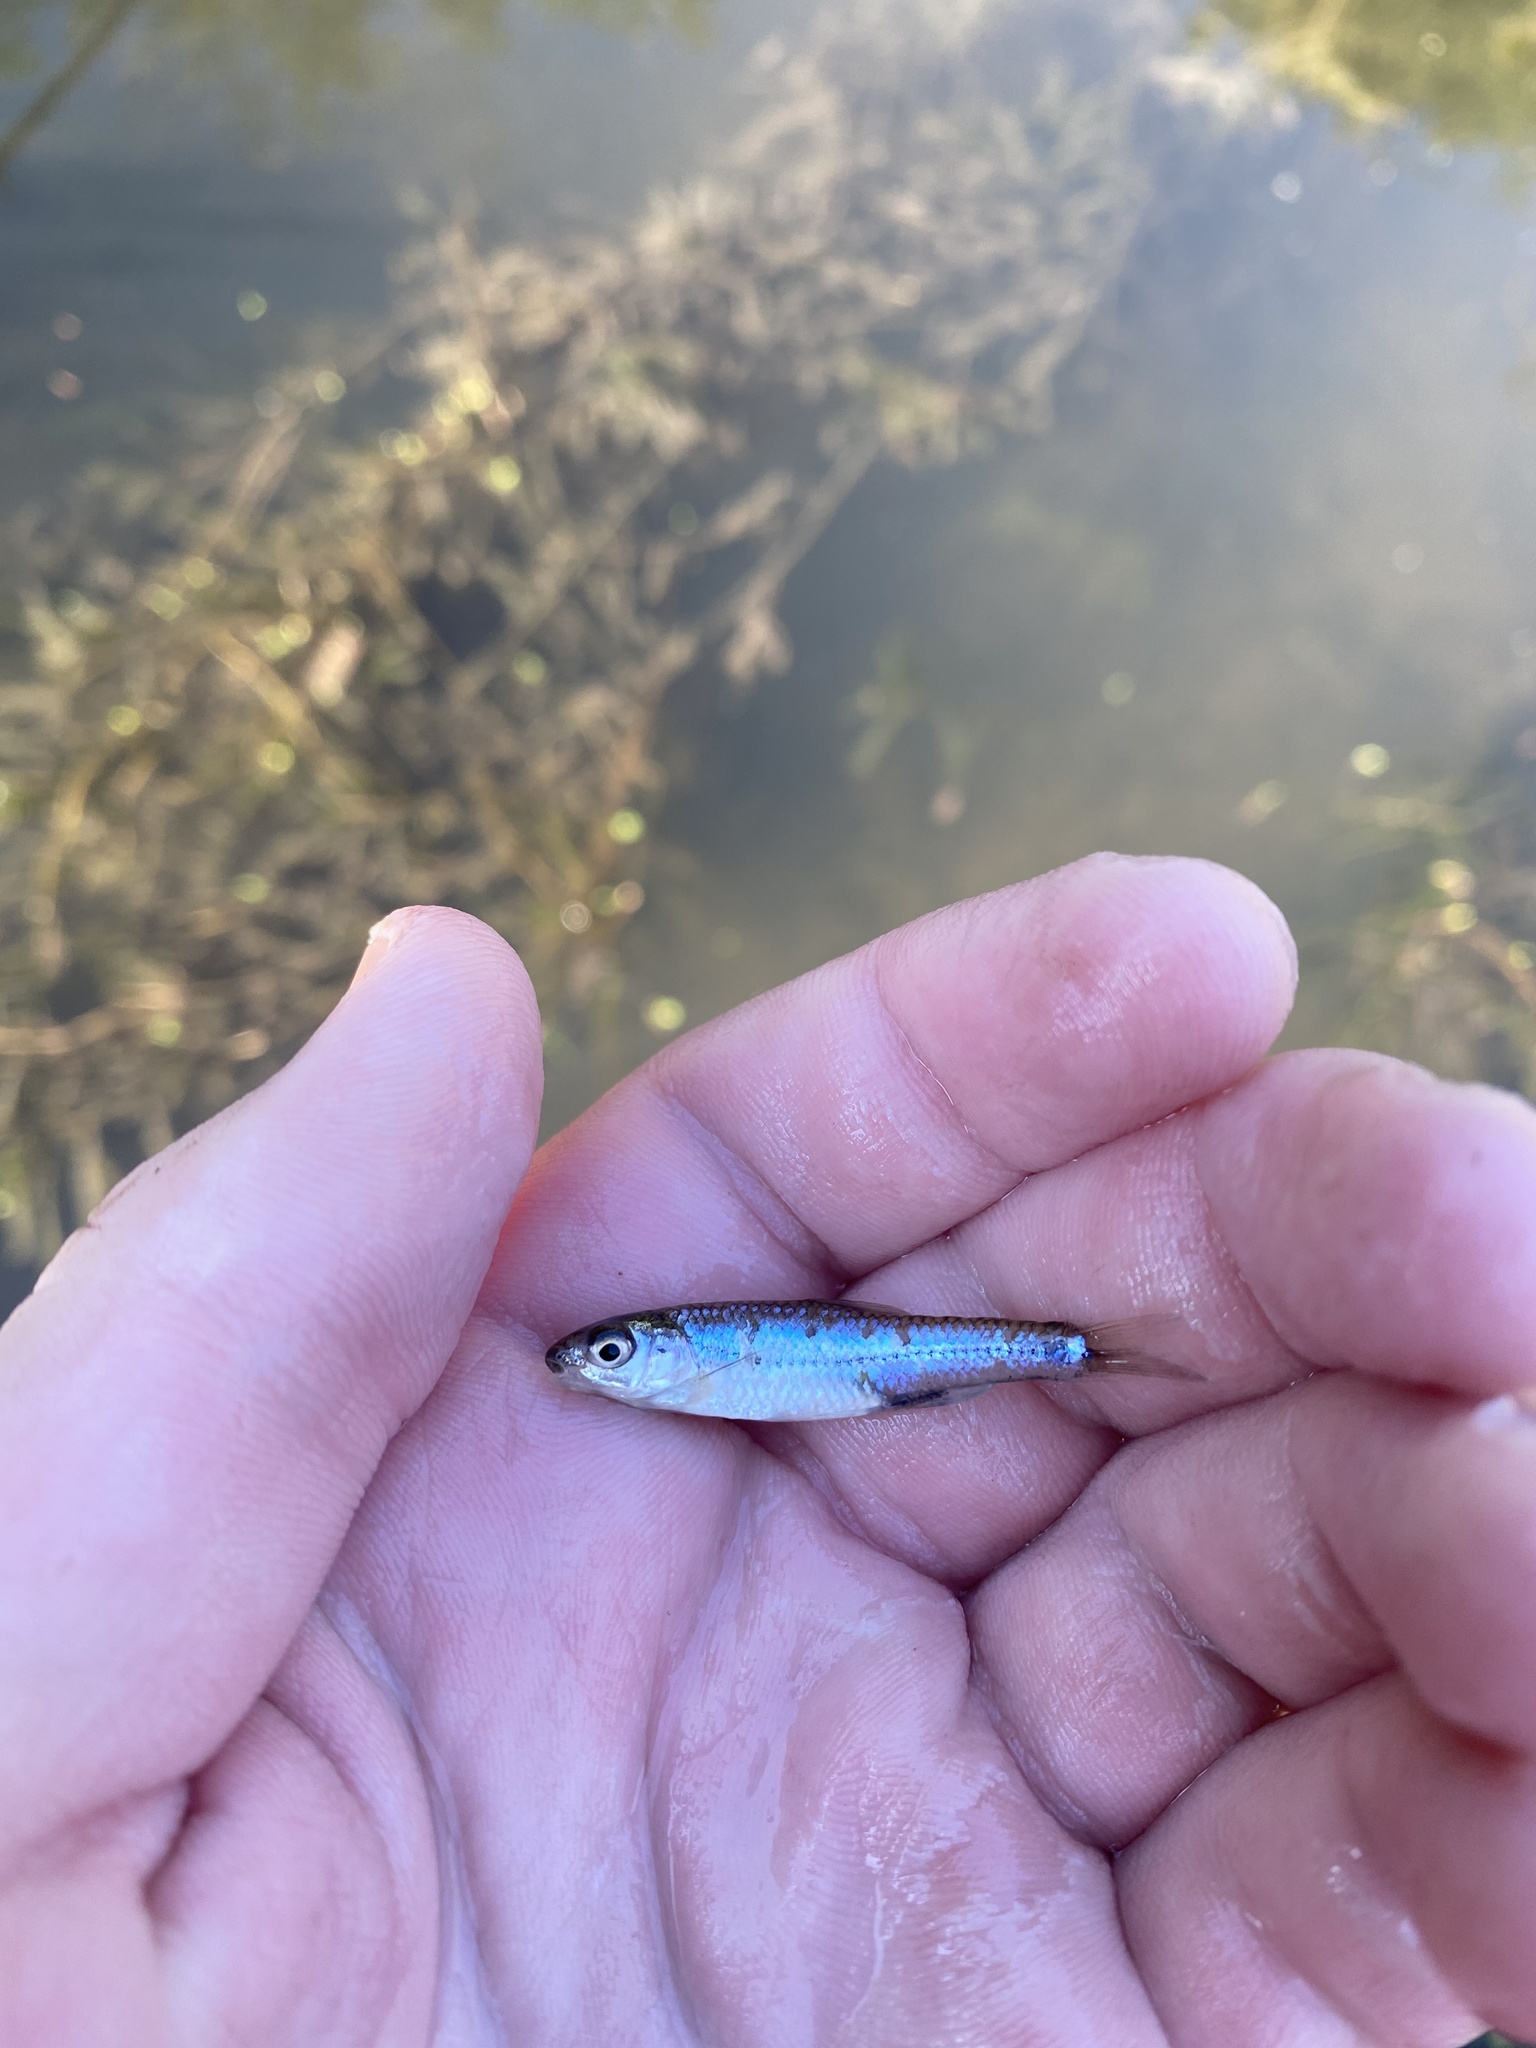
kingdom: Animalia
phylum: Chordata
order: Cypriniformes
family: Cyprinidae
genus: Notropis
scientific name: Notropis
